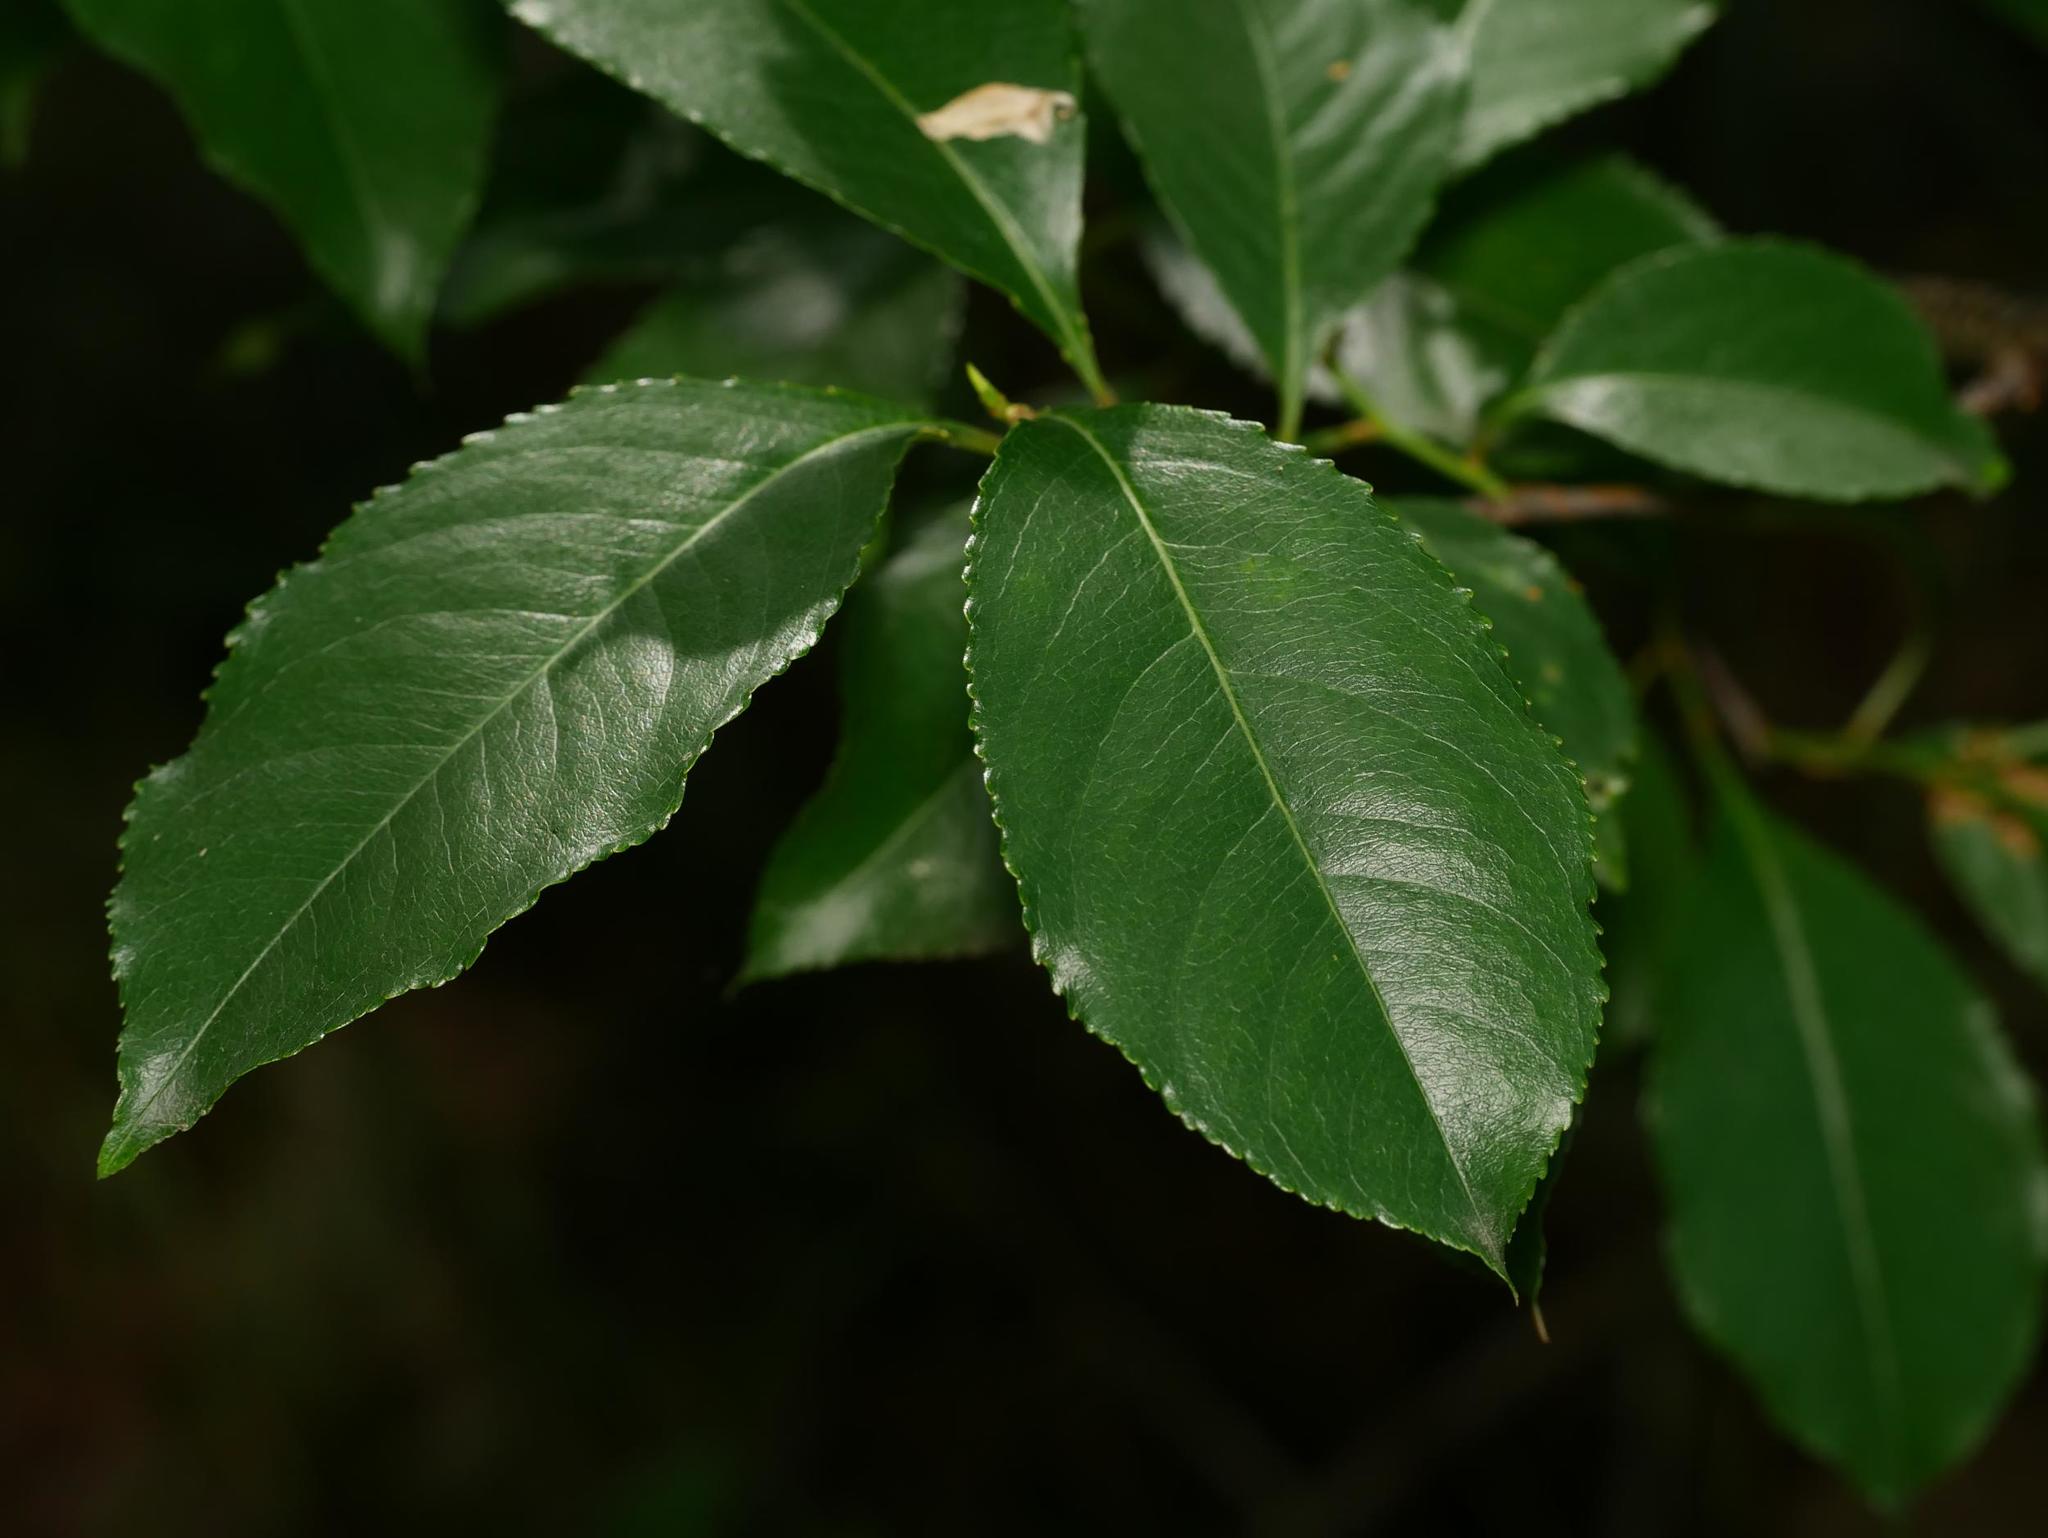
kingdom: Plantae
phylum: Tracheophyta
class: Magnoliopsida
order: Rosales
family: Rosaceae
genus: Prunus
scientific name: Prunus serotina
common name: Black cherry
